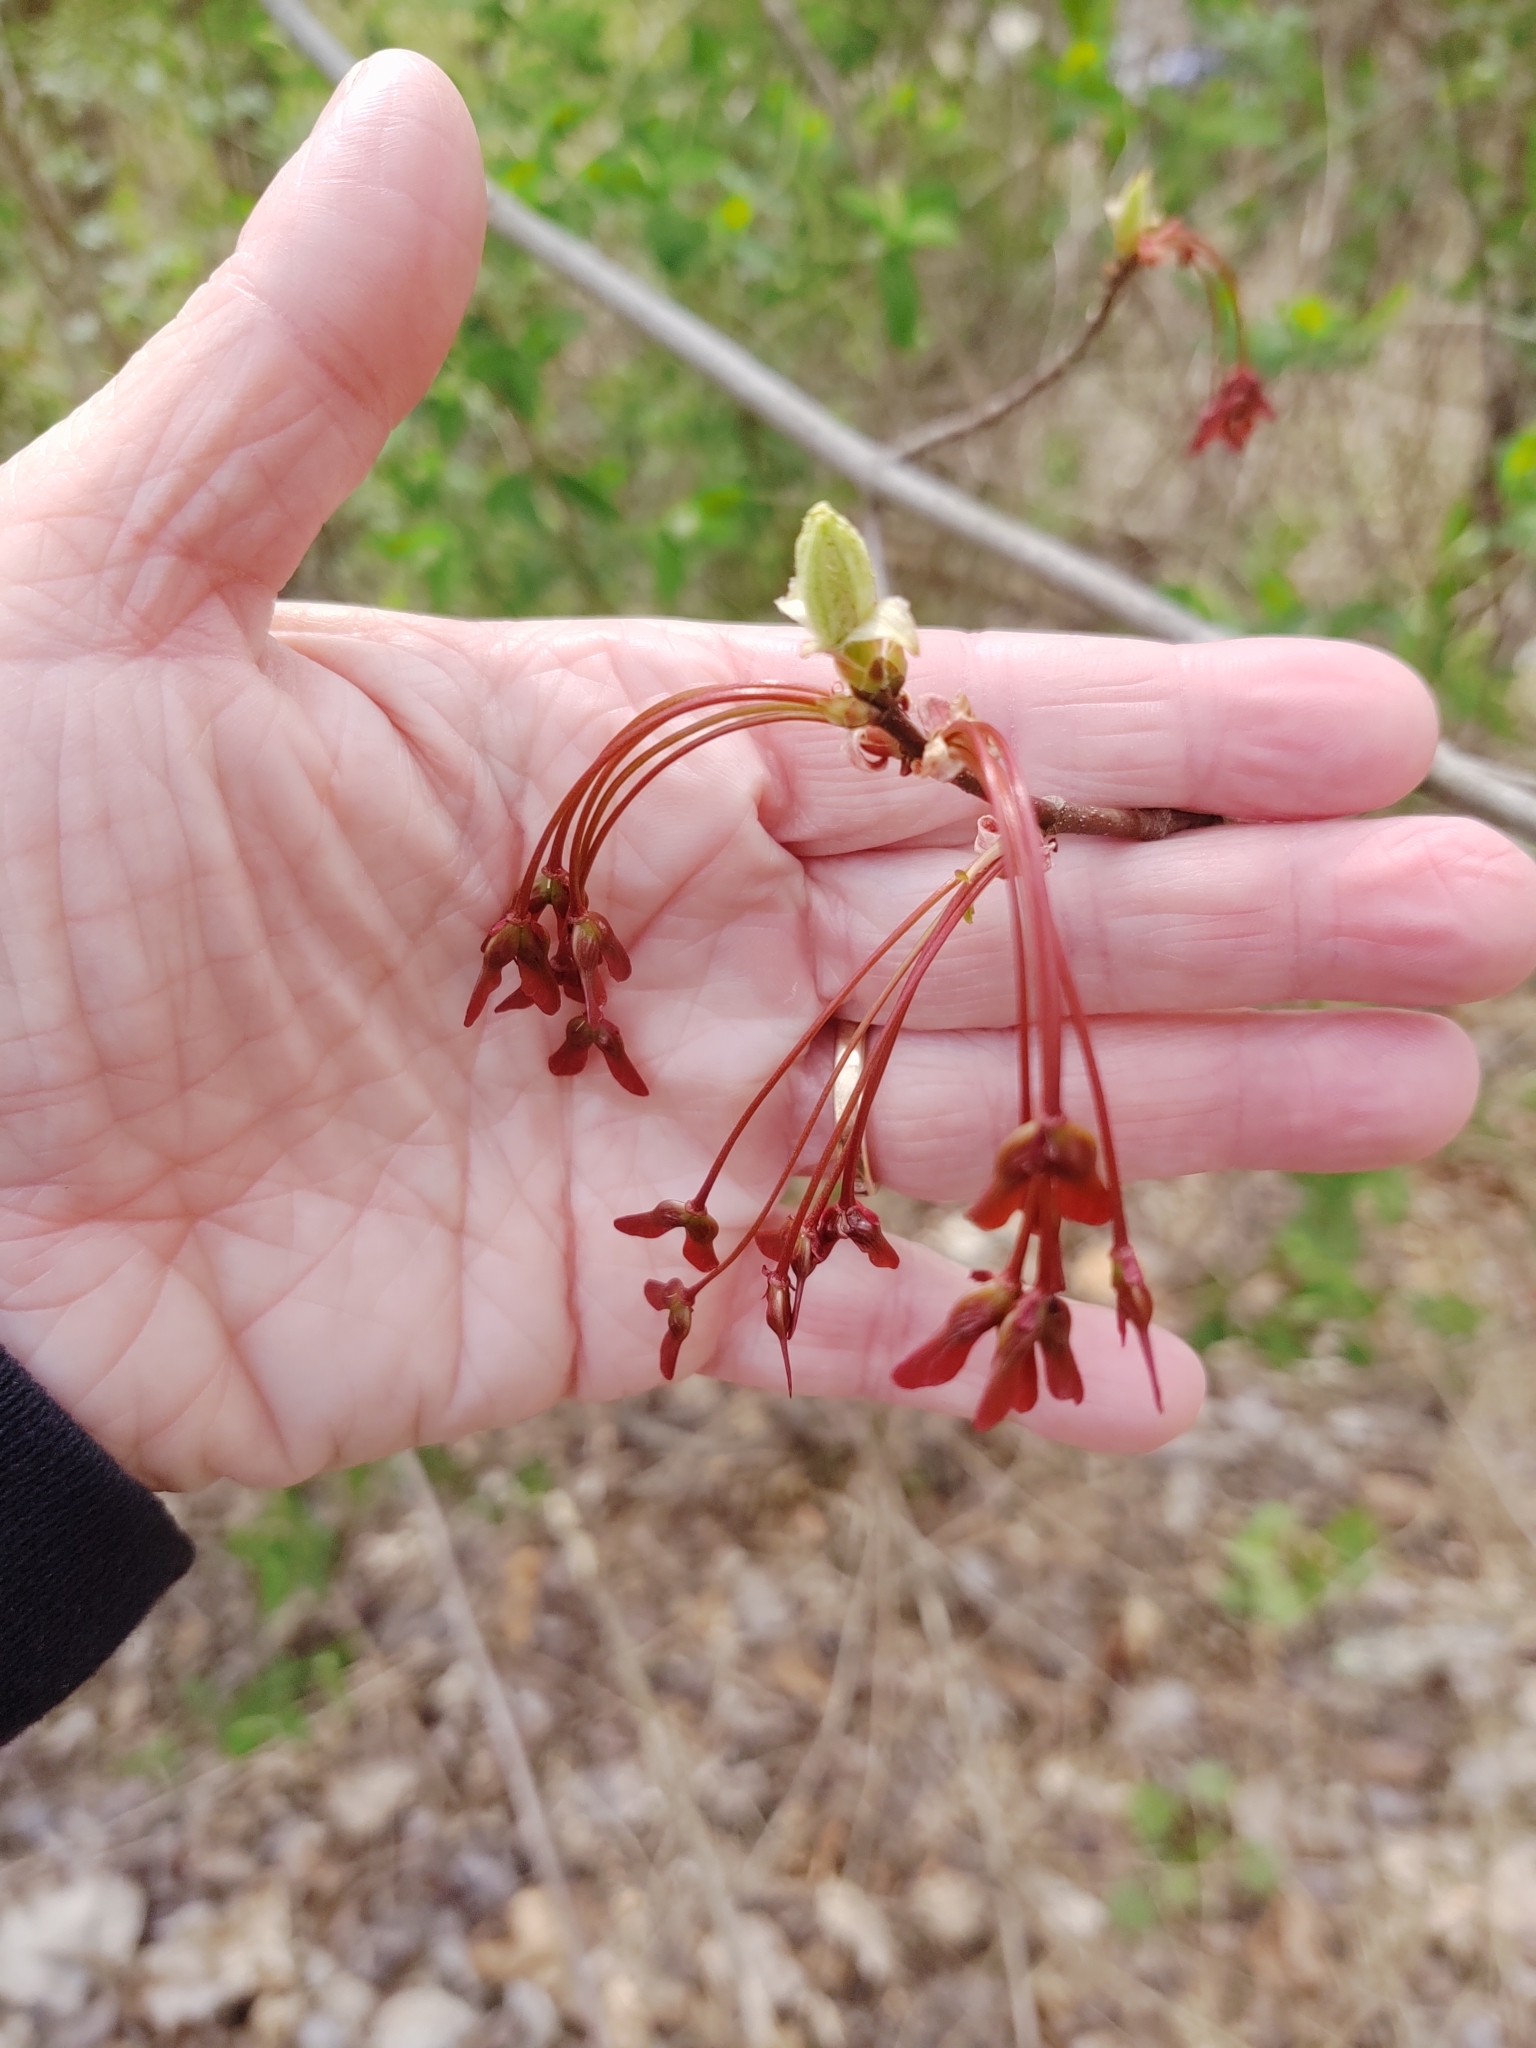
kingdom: Plantae
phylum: Tracheophyta
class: Magnoliopsida
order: Sapindales
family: Sapindaceae
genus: Acer
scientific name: Acer rubrum
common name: Red maple
